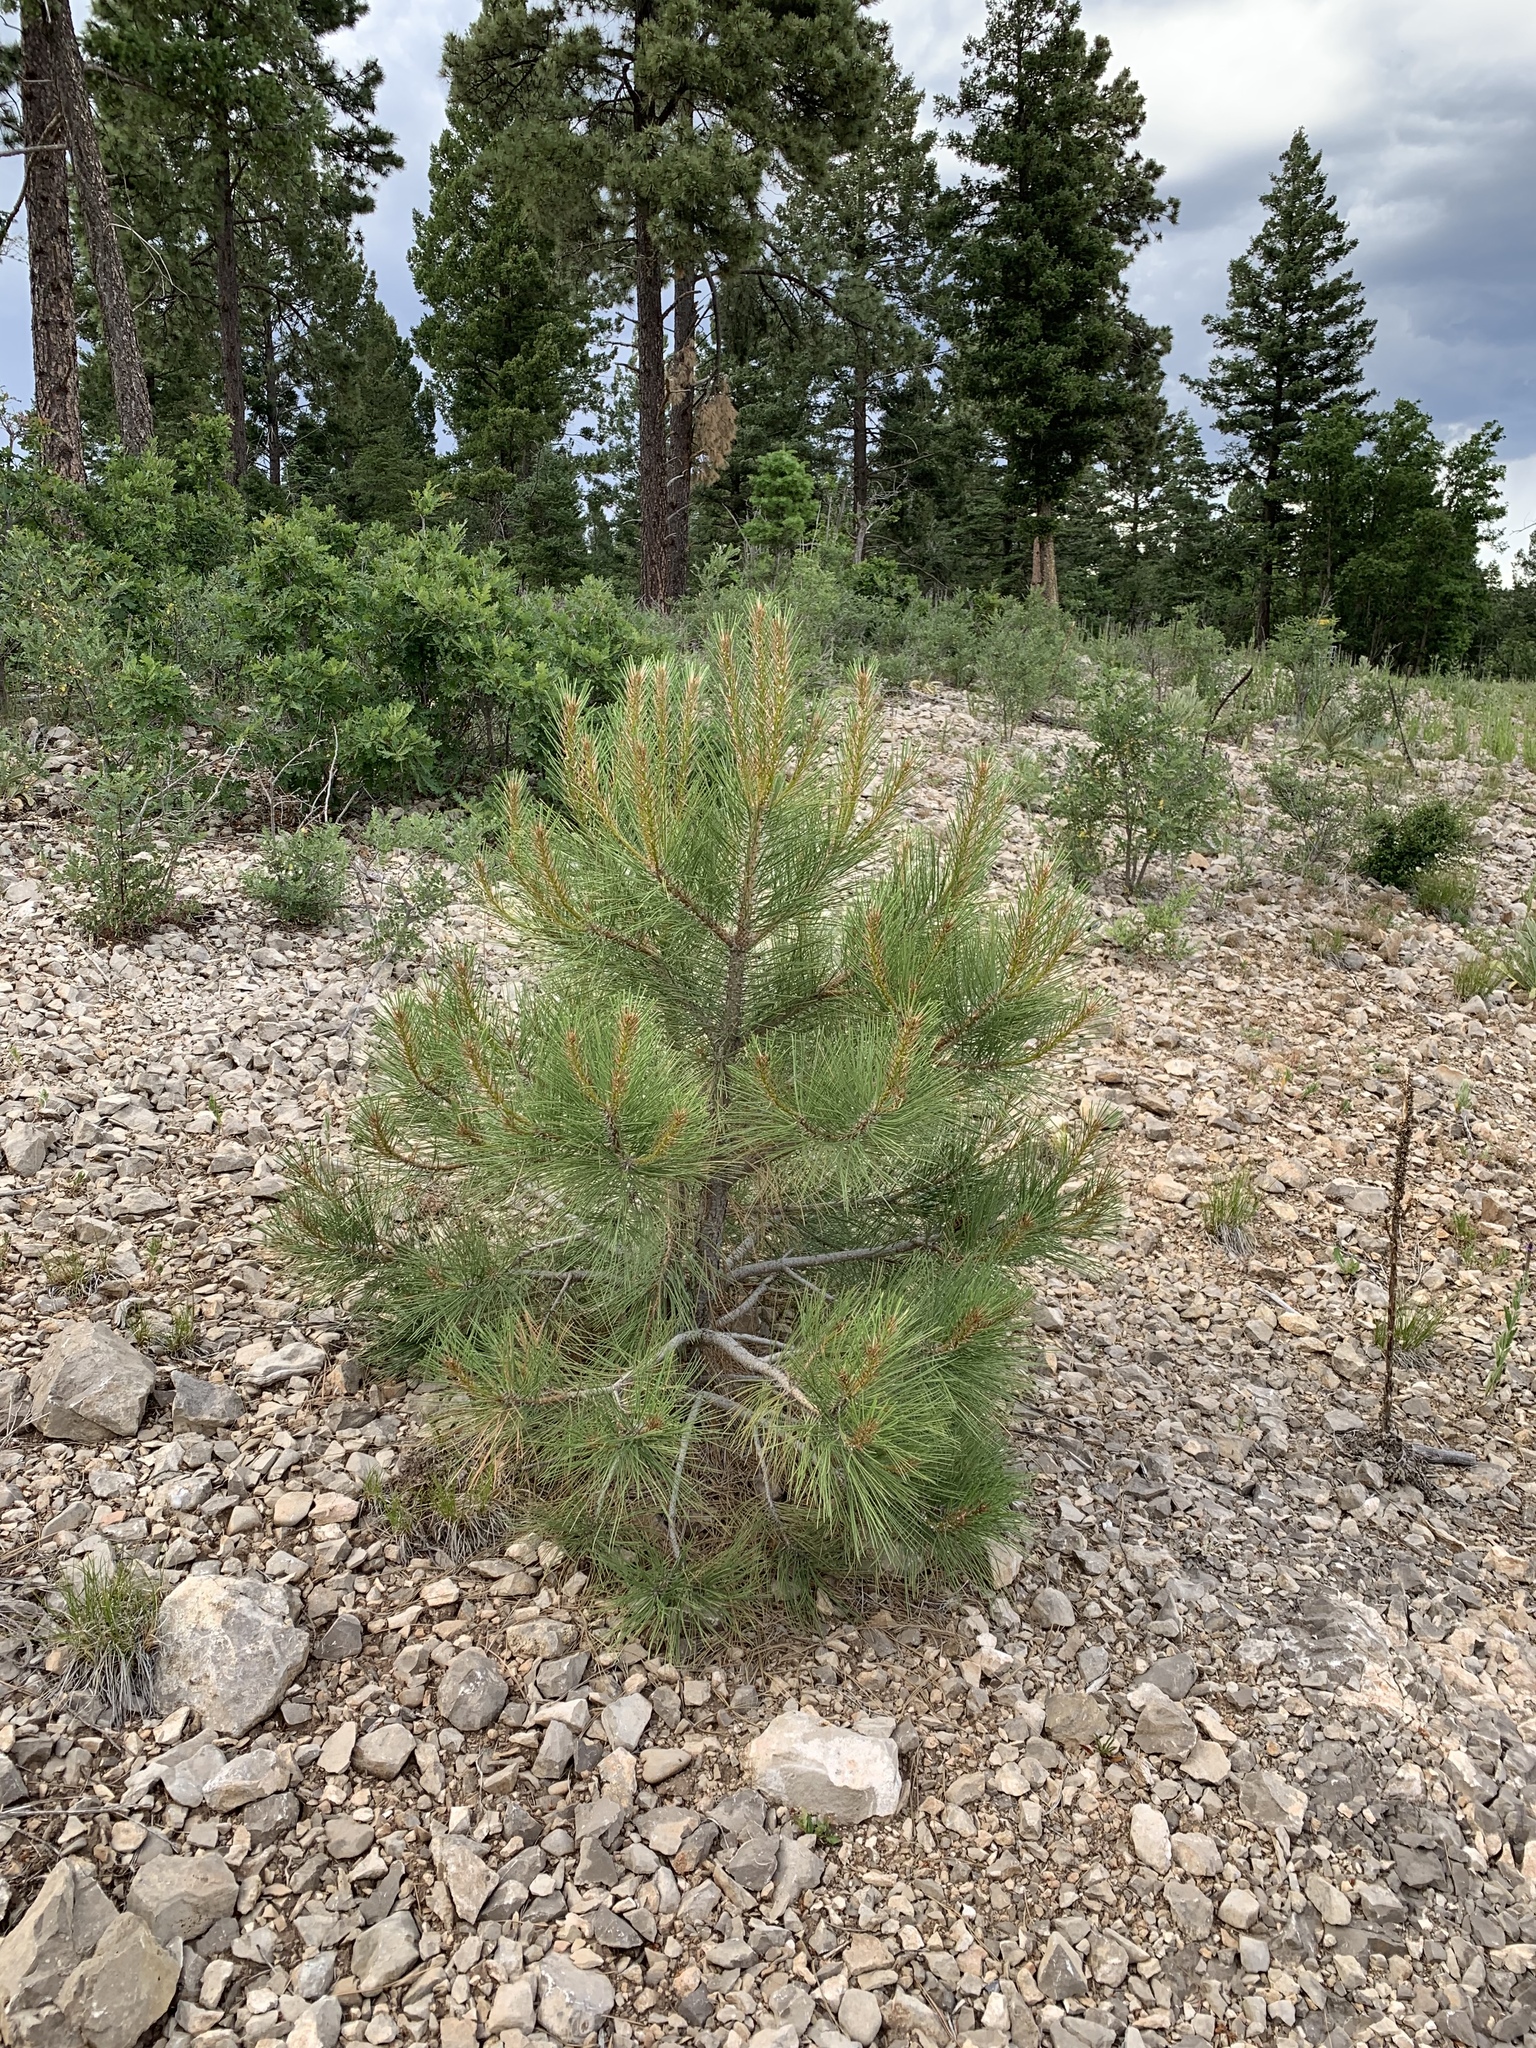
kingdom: Plantae
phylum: Tracheophyta
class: Pinopsida
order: Pinales
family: Pinaceae
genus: Pinus
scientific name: Pinus ponderosa
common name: Western yellow-pine
